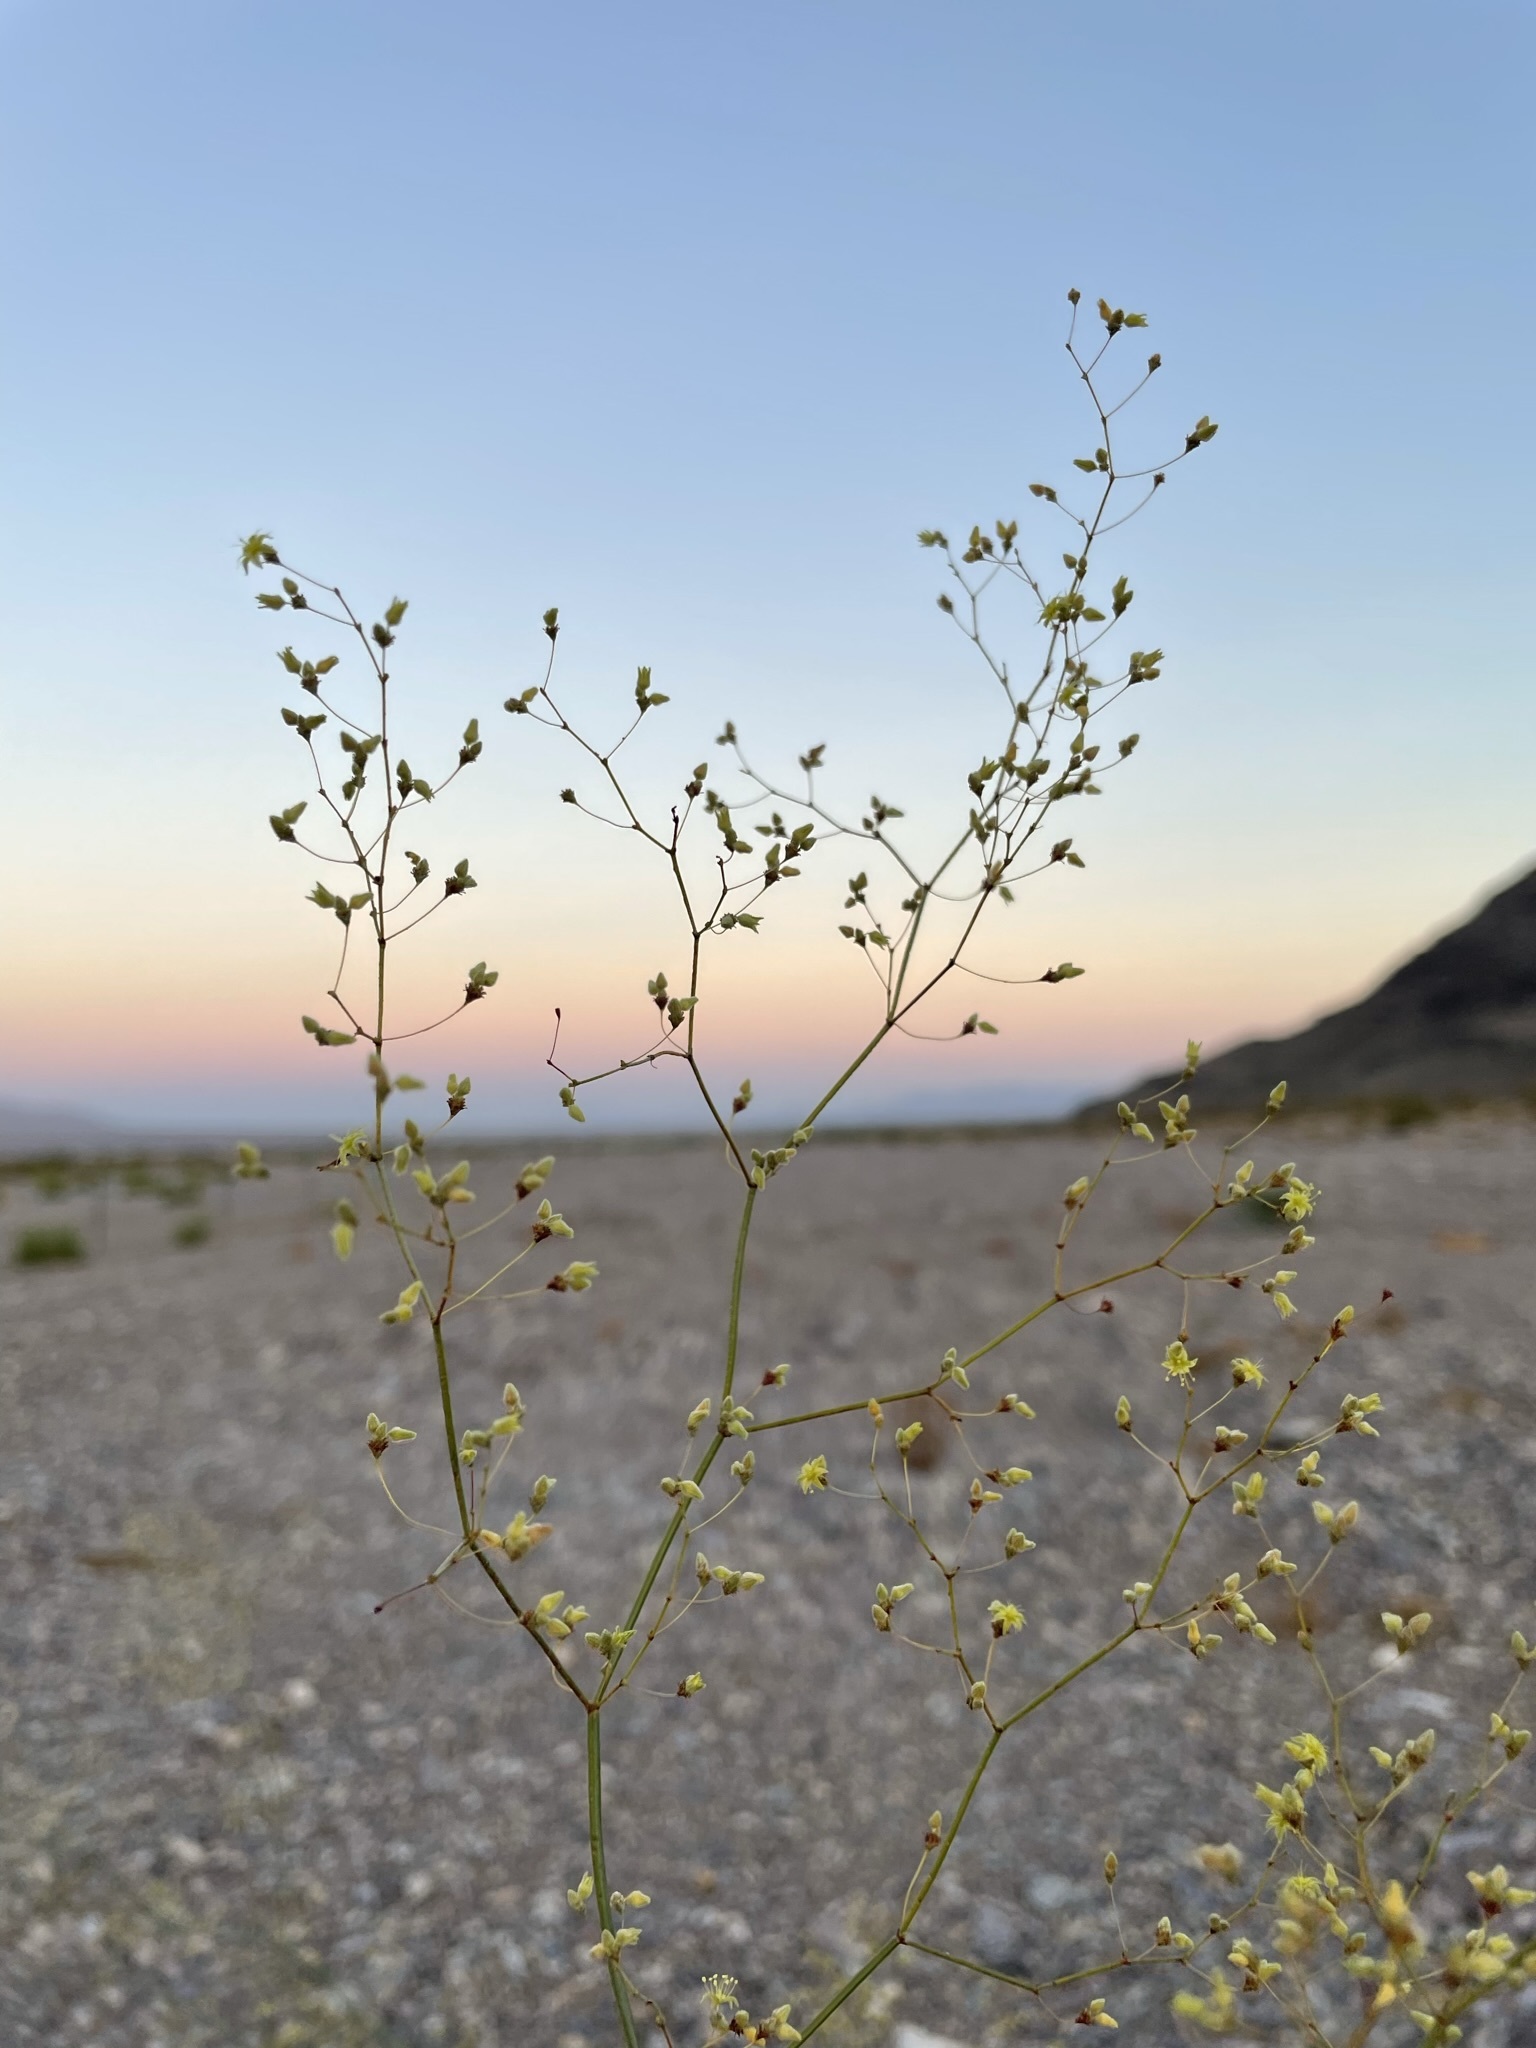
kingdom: Plantae
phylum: Tracheophyta
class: Magnoliopsida
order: Caryophyllales
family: Polygonaceae
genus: Eriogonum
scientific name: Eriogonum inflatum
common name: Desert trumpet
